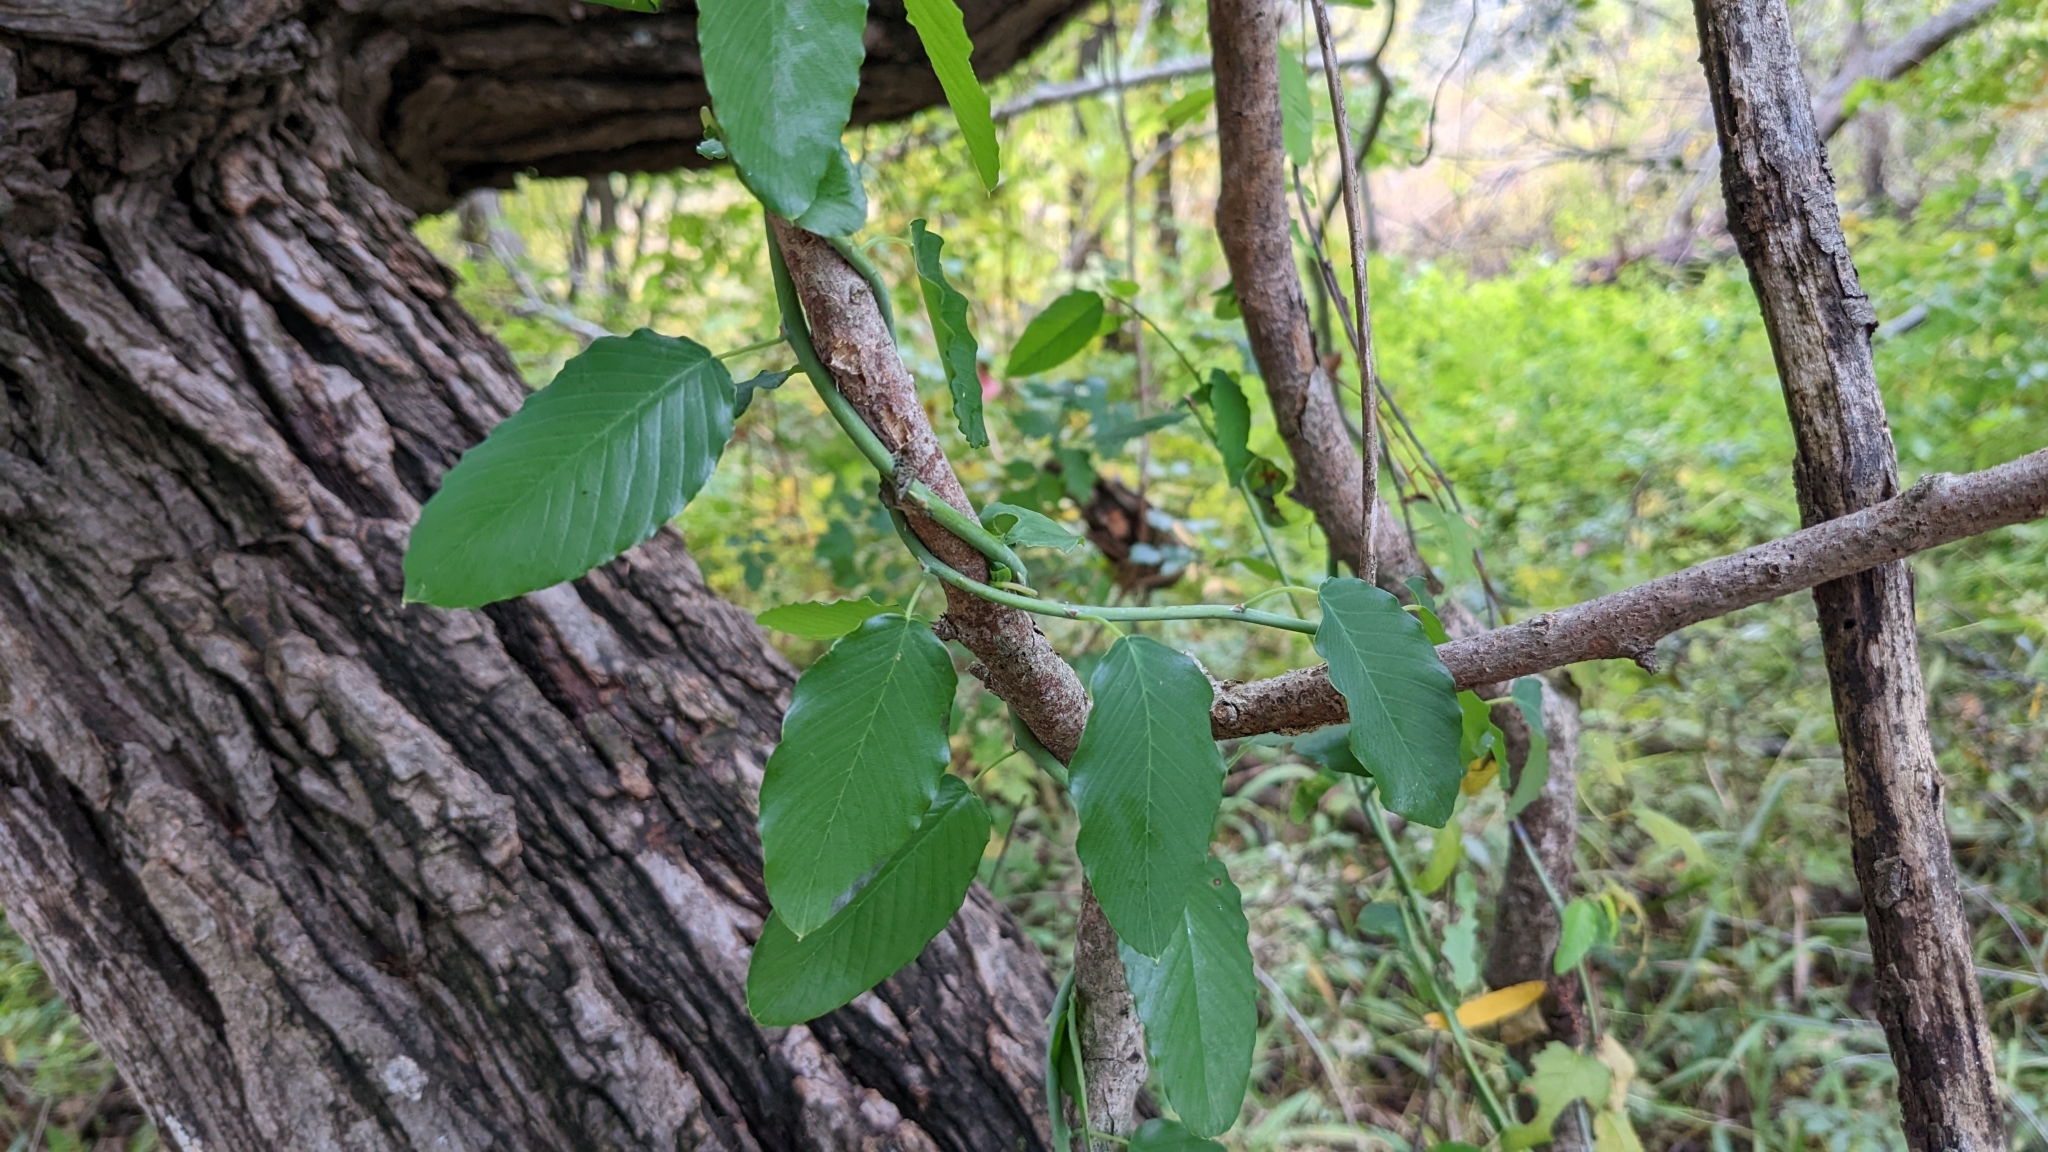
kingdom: Plantae
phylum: Tracheophyta
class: Magnoliopsida
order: Rosales
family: Rhamnaceae
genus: Berchemia
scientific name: Berchemia scandens
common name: Supplejack
